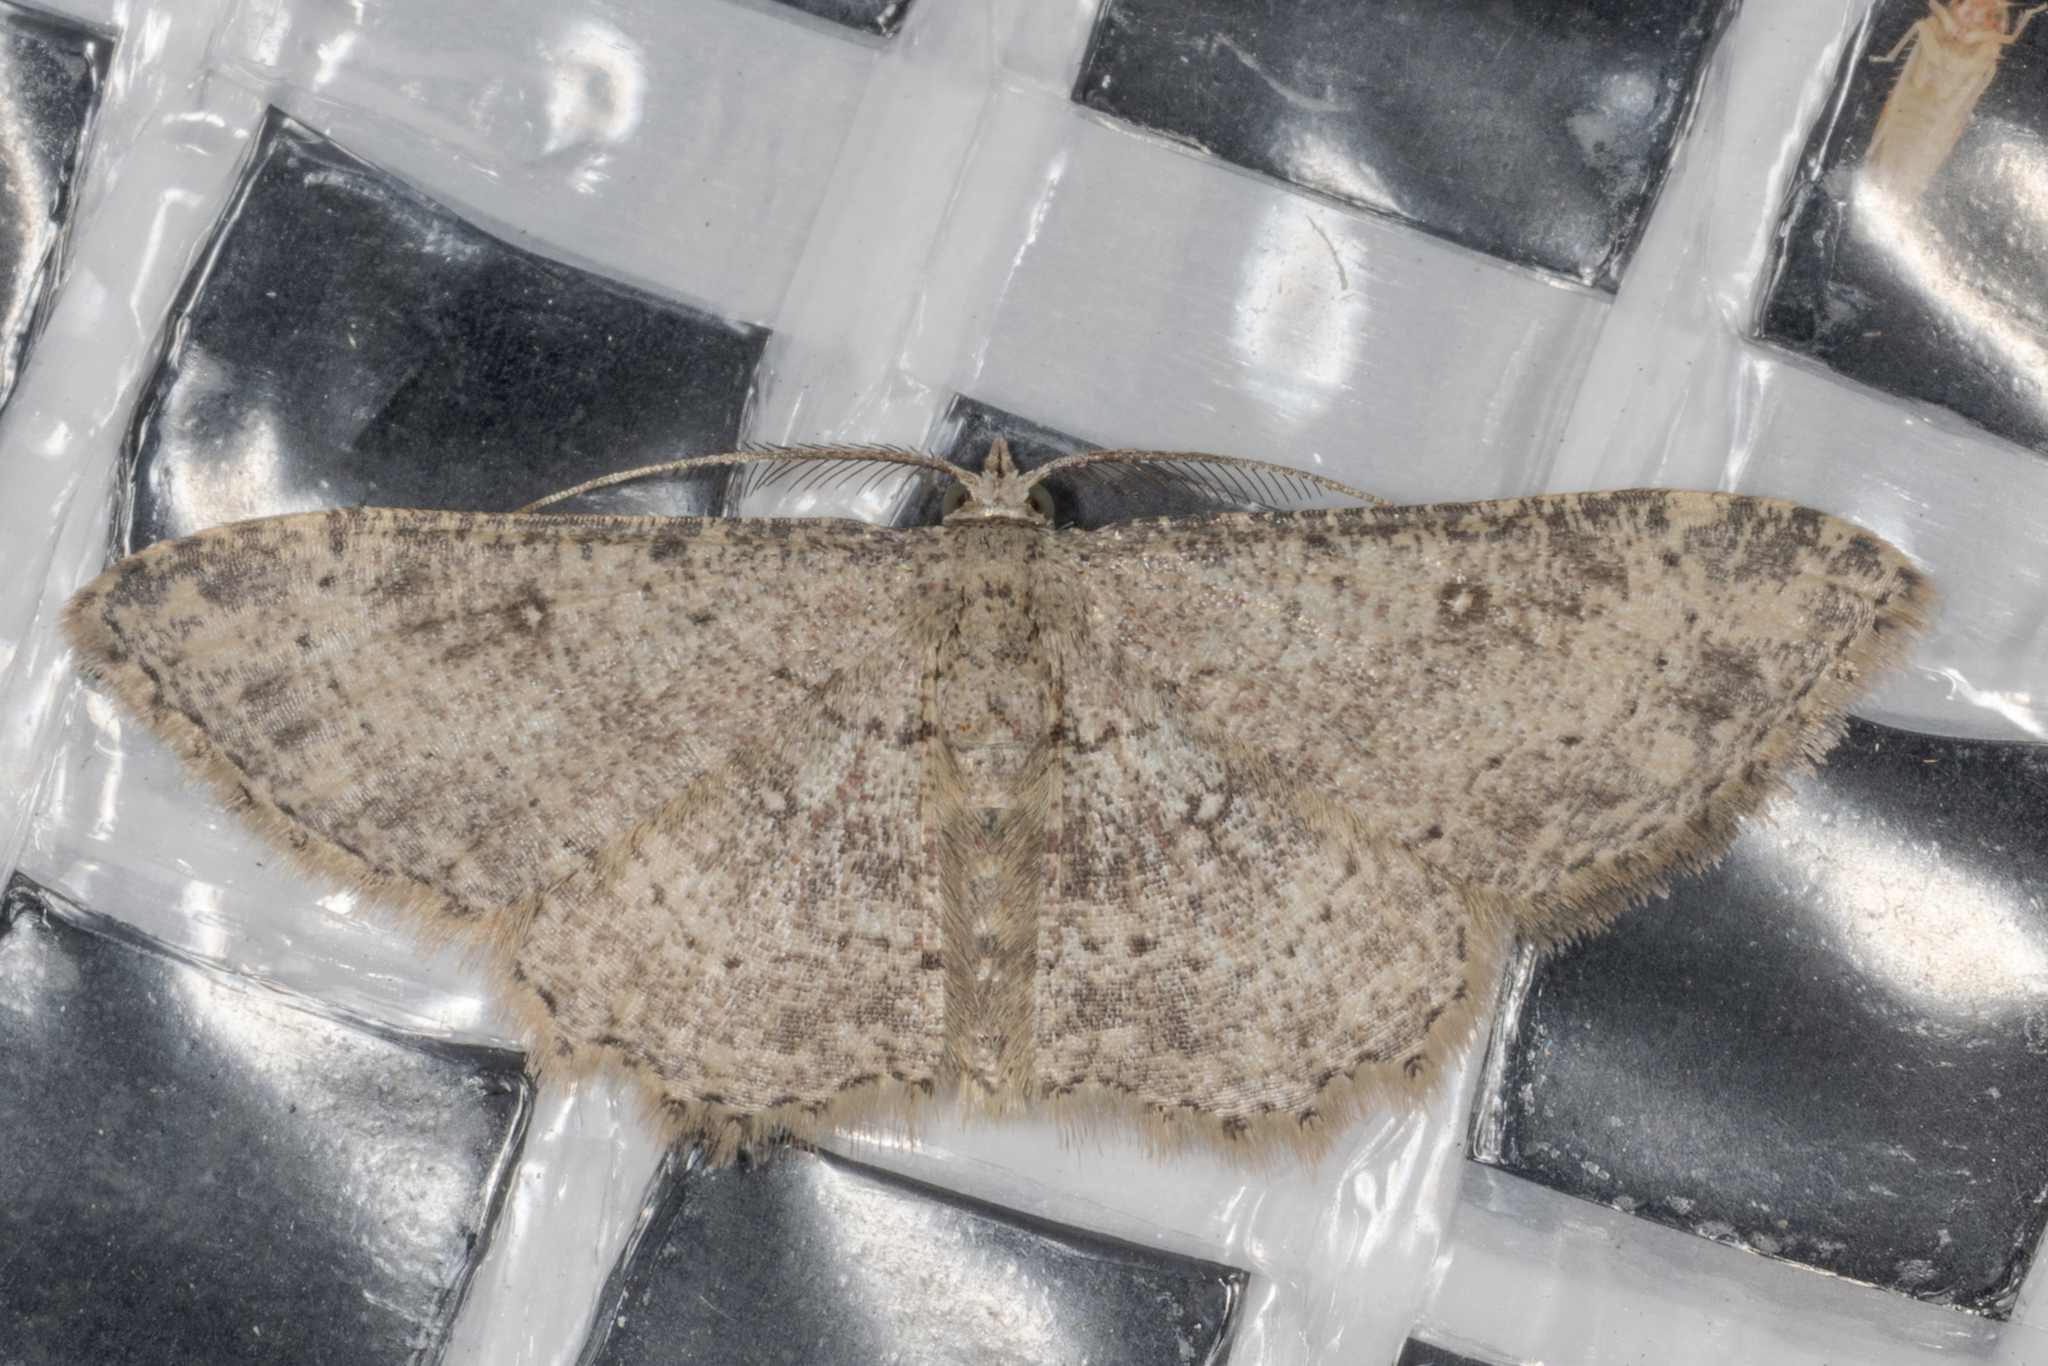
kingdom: Animalia
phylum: Arthropoda
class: Insecta
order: Lepidoptera
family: Geometridae
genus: Cyclophora
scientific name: Cyclophora nanaria
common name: Cankerworm
